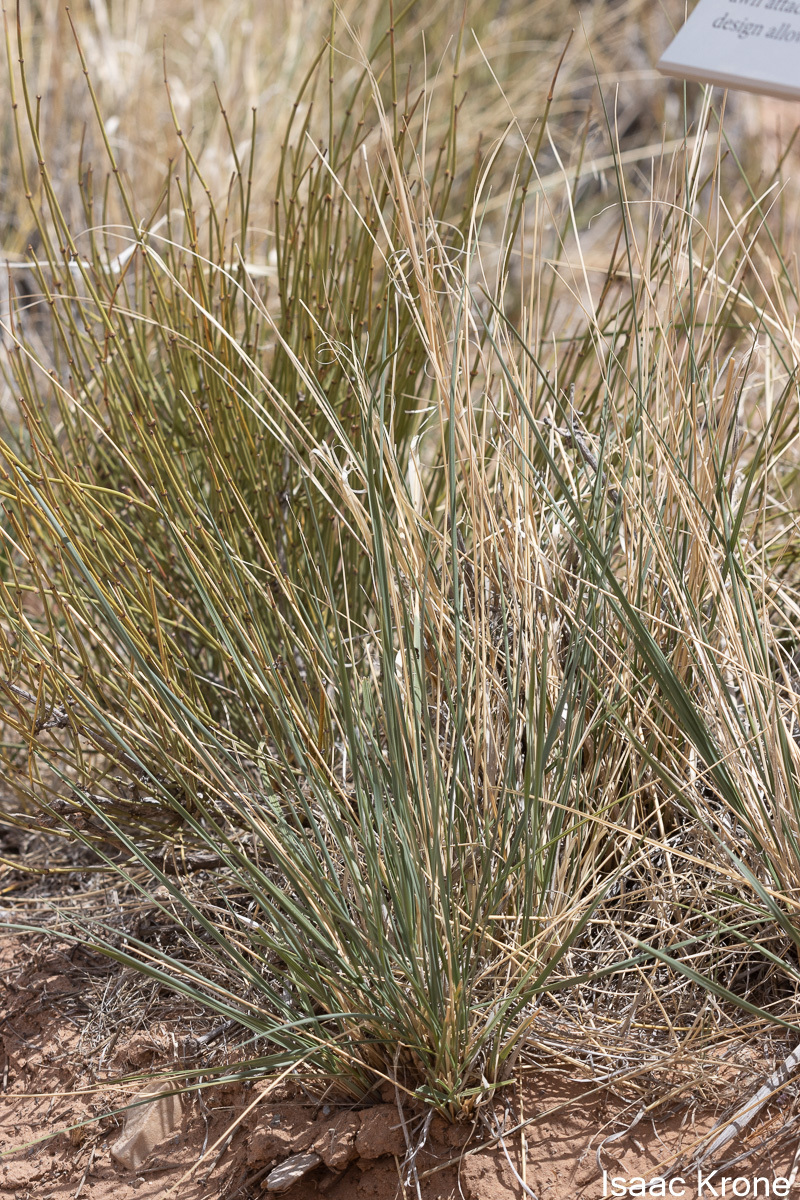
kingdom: Plantae
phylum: Tracheophyta
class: Liliopsida
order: Poales
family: Poaceae
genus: Hesperostipa
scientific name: Hesperostipa comata
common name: Needle-and-thread grass
